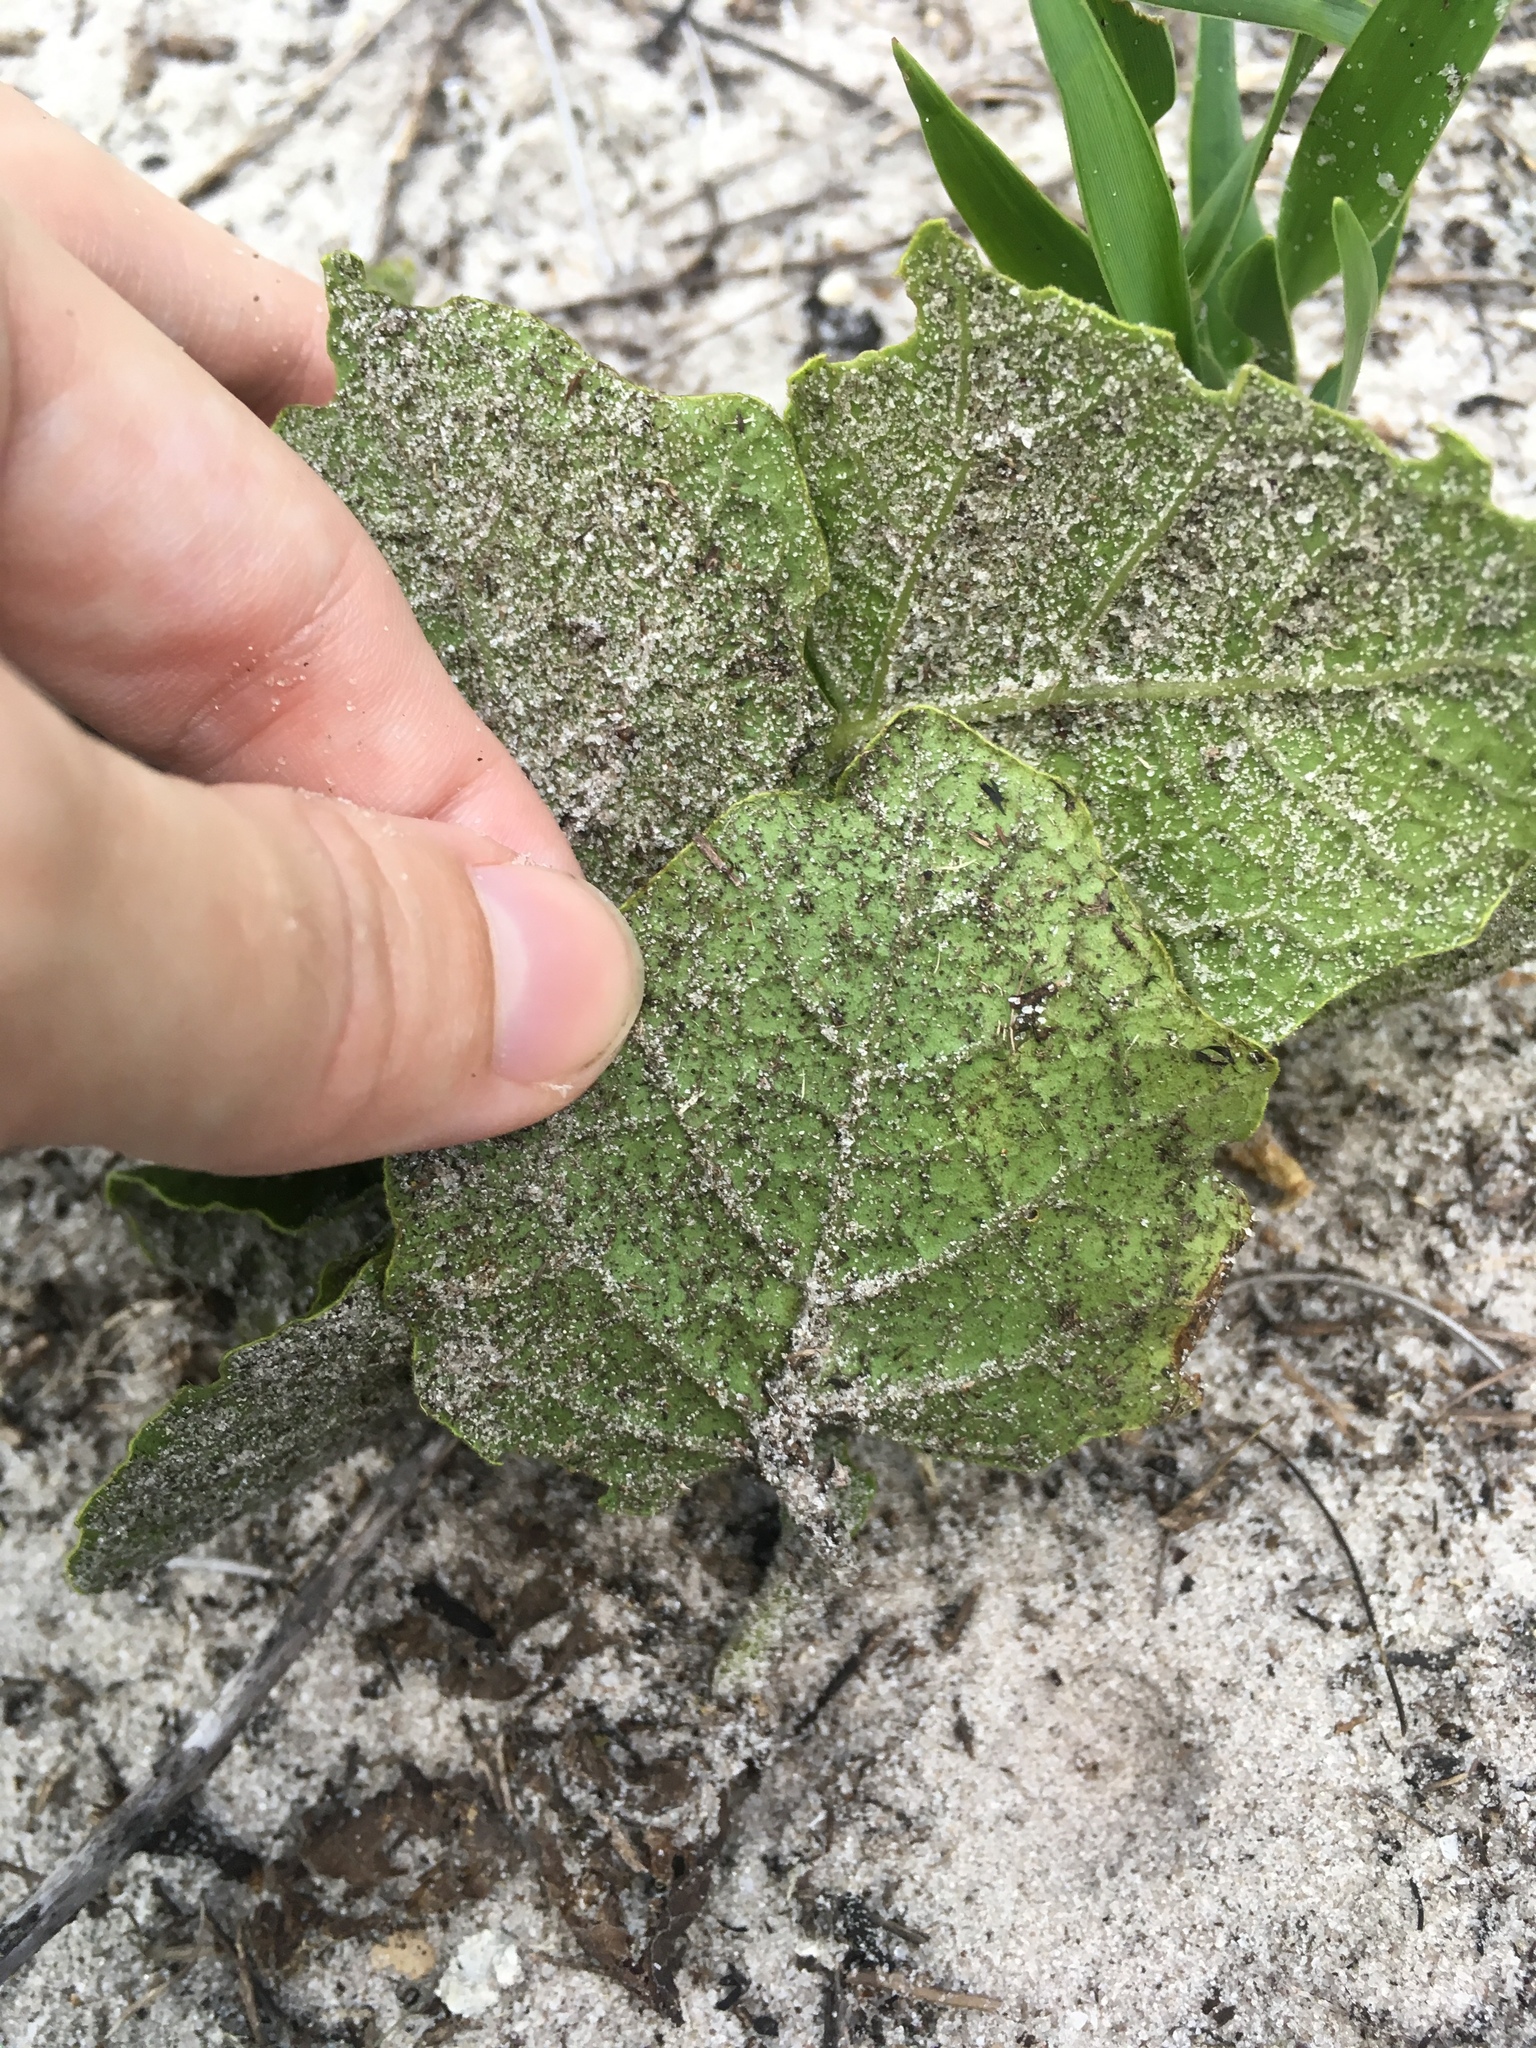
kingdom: Plantae
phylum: Tracheophyta
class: Magnoliopsida
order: Solanales
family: Solanaceae
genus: Physalis
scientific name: Physalis arenicola
